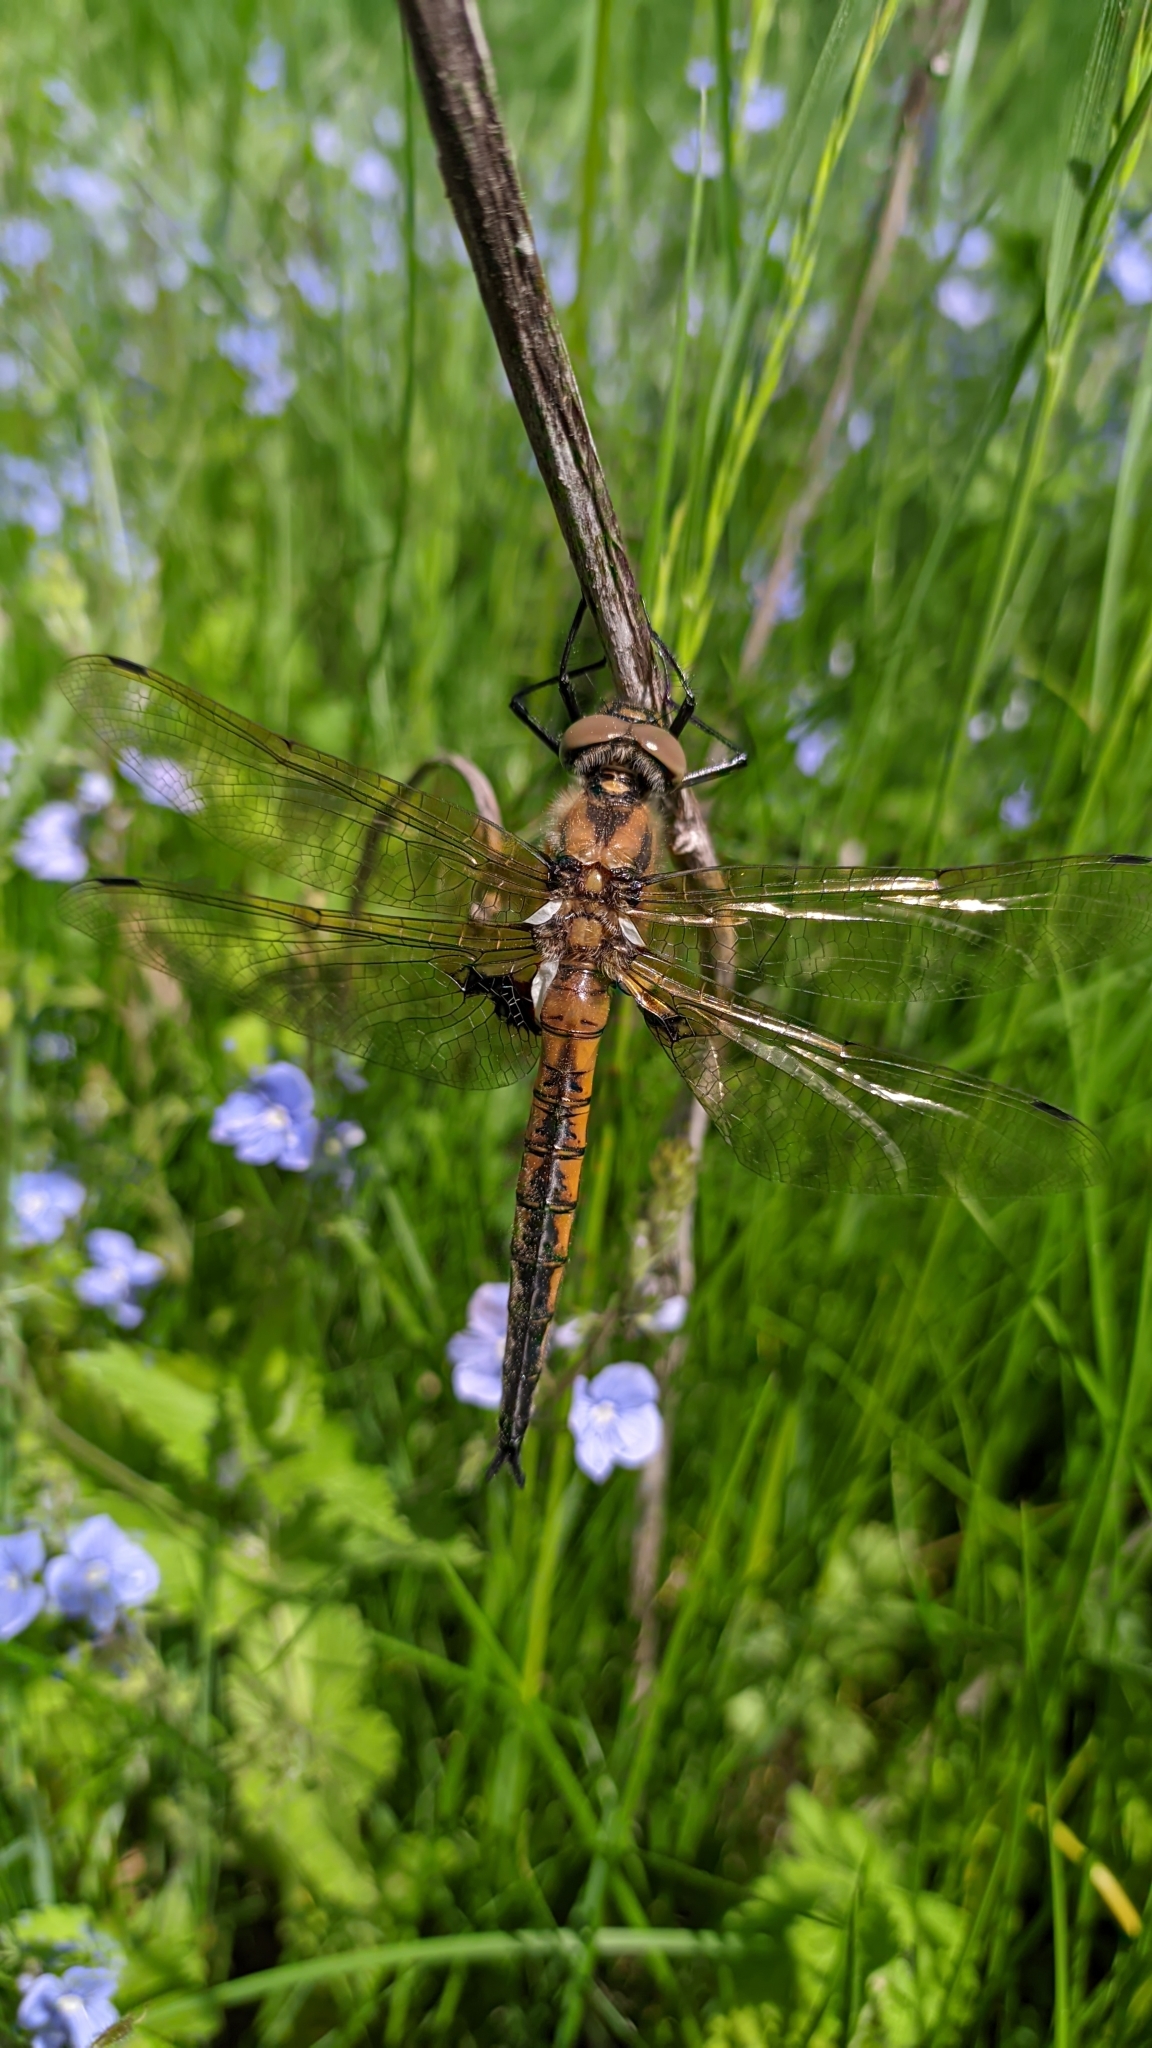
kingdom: Animalia
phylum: Arthropoda
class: Insecta
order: Odonata
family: Corduliidae
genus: Epitheca
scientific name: Epitheca bimaculata
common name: Eurasian baskettail
